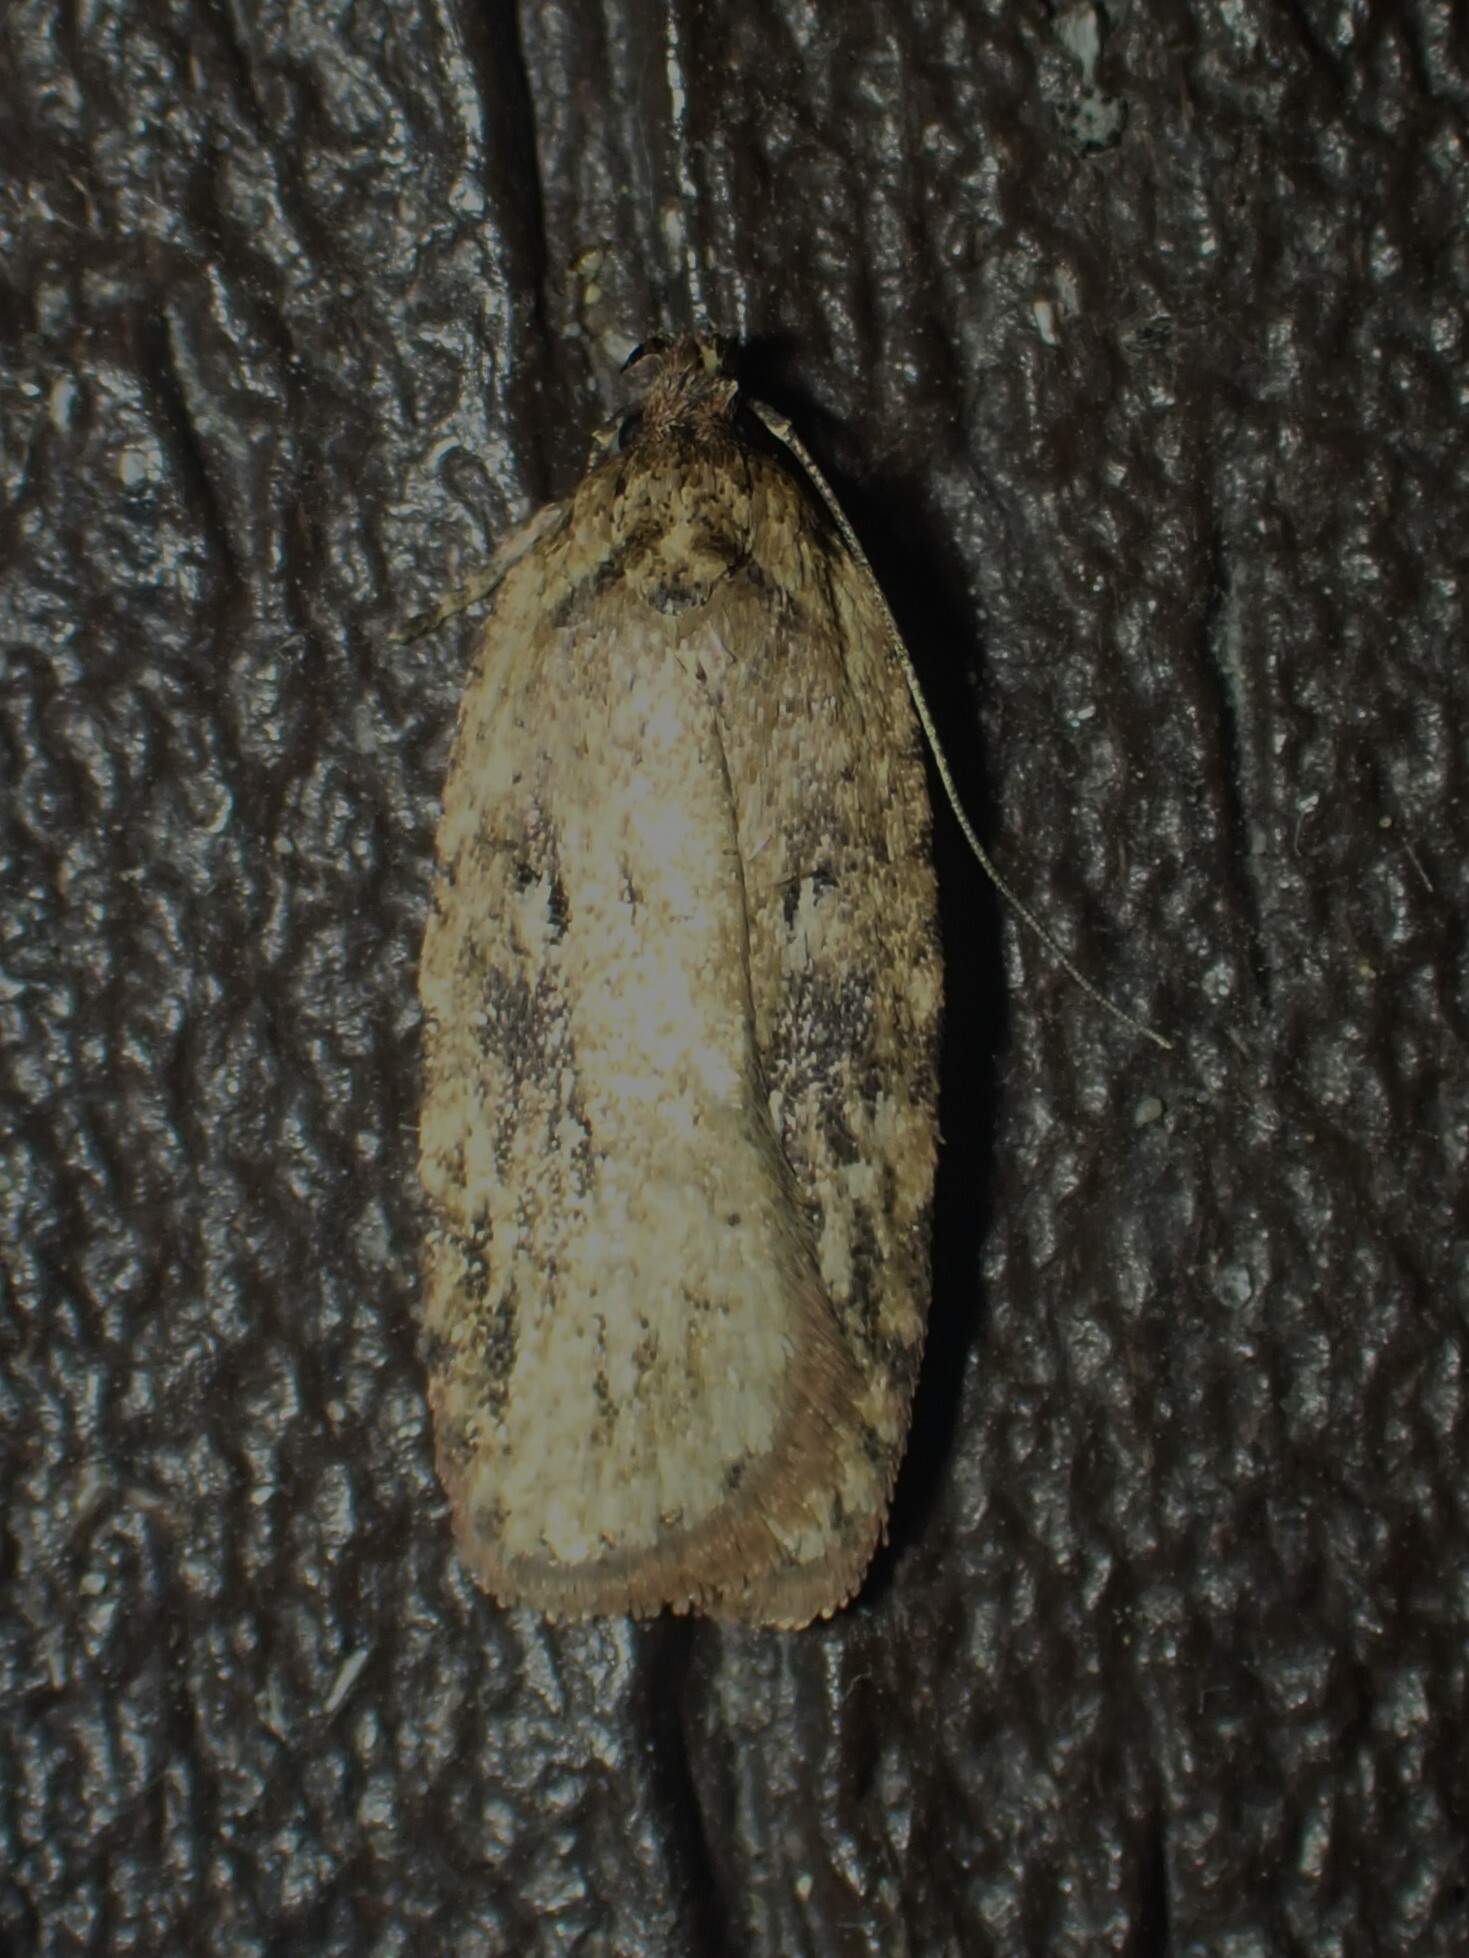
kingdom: Animalia
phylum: Arthropoda
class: Insecta
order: Lepidoptera
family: Depressariidae
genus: Agonopterix
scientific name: Agonopterix pulvipennella
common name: Goldenrod leafffolder
